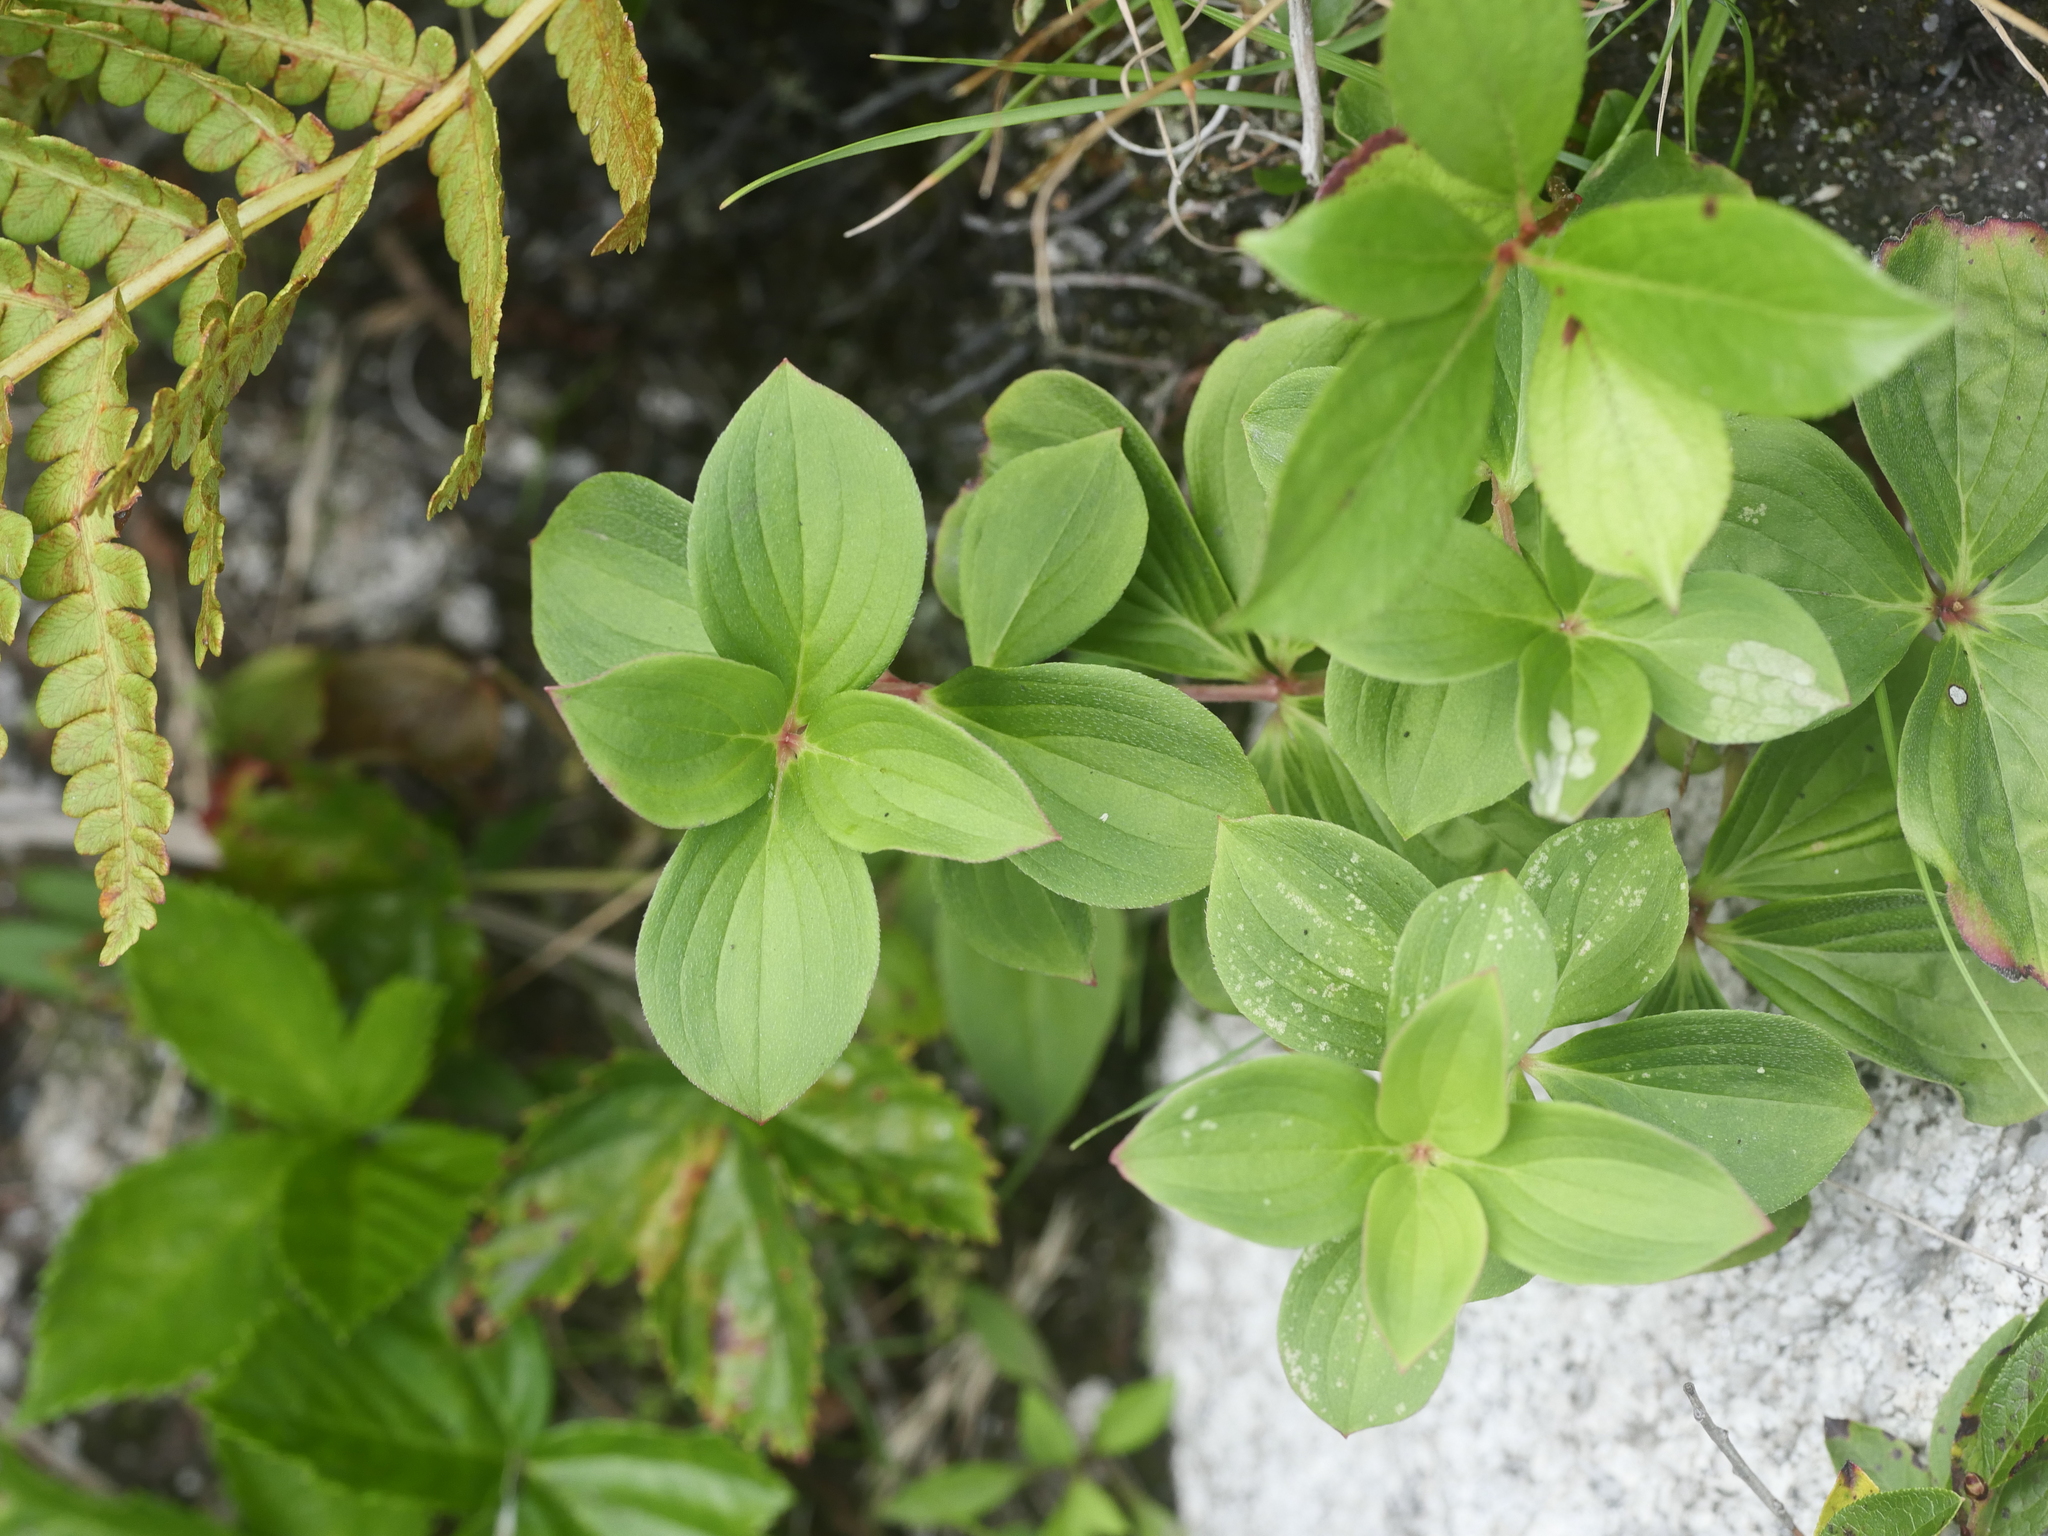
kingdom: Plantae
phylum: Tracheophyta
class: Magnoliopsida
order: Cornales
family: Cornaceae
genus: Cornus
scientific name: Cornus canadensis
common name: Creeping dogwood
